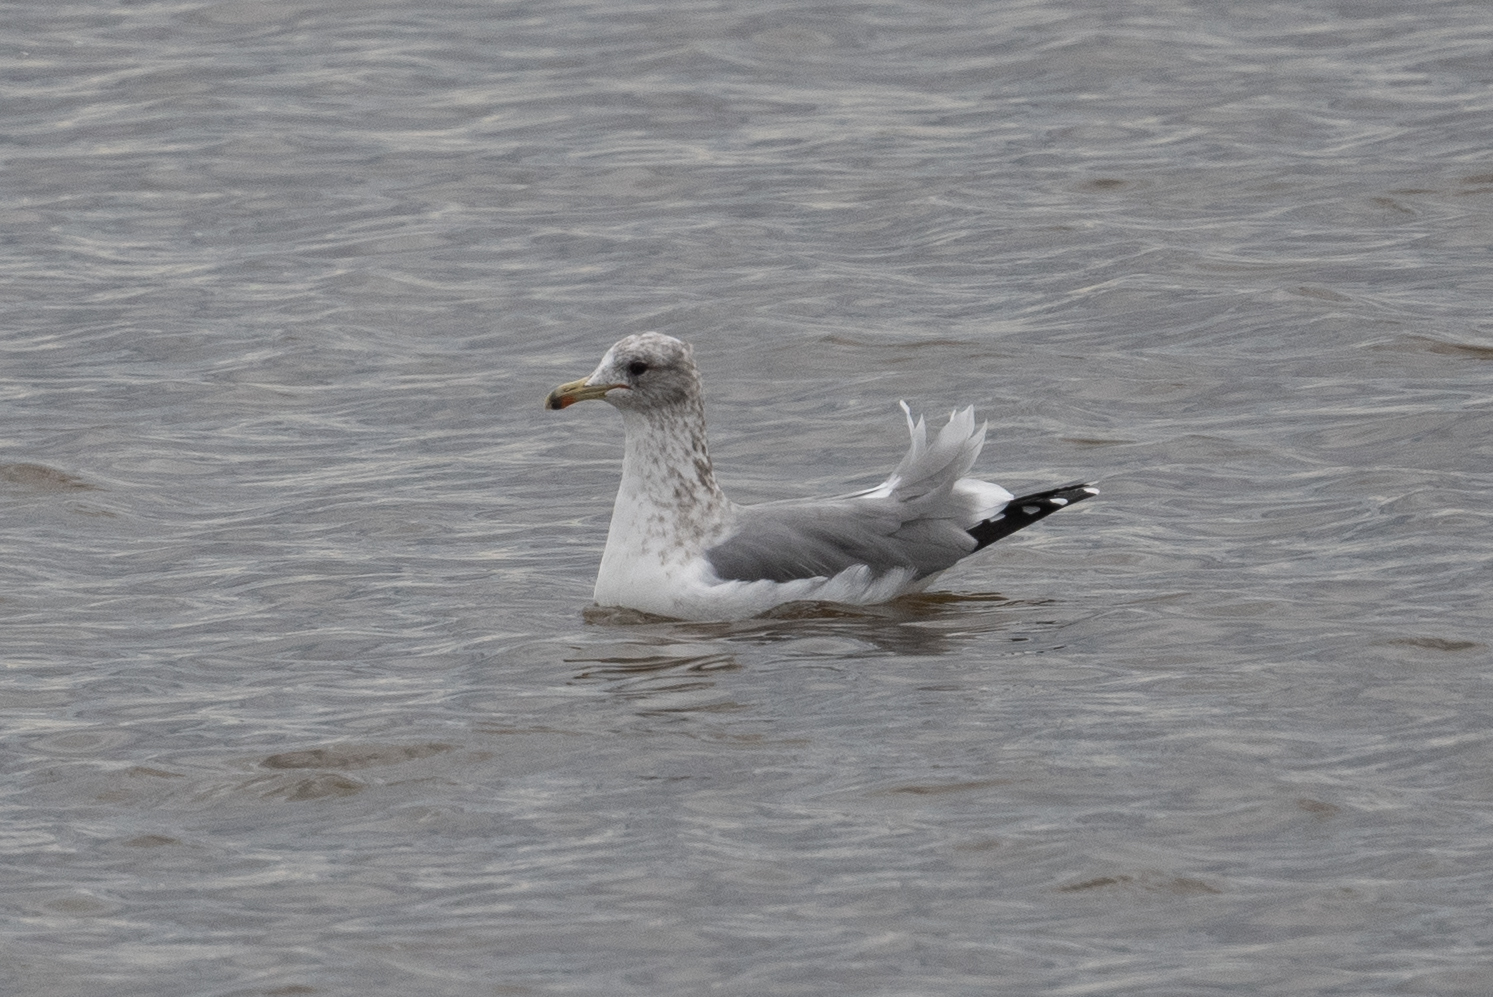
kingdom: Animalia
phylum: Chordata
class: Aves
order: Charadriiformes
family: Laridae
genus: Larus
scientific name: Larus californicus
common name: California gull
